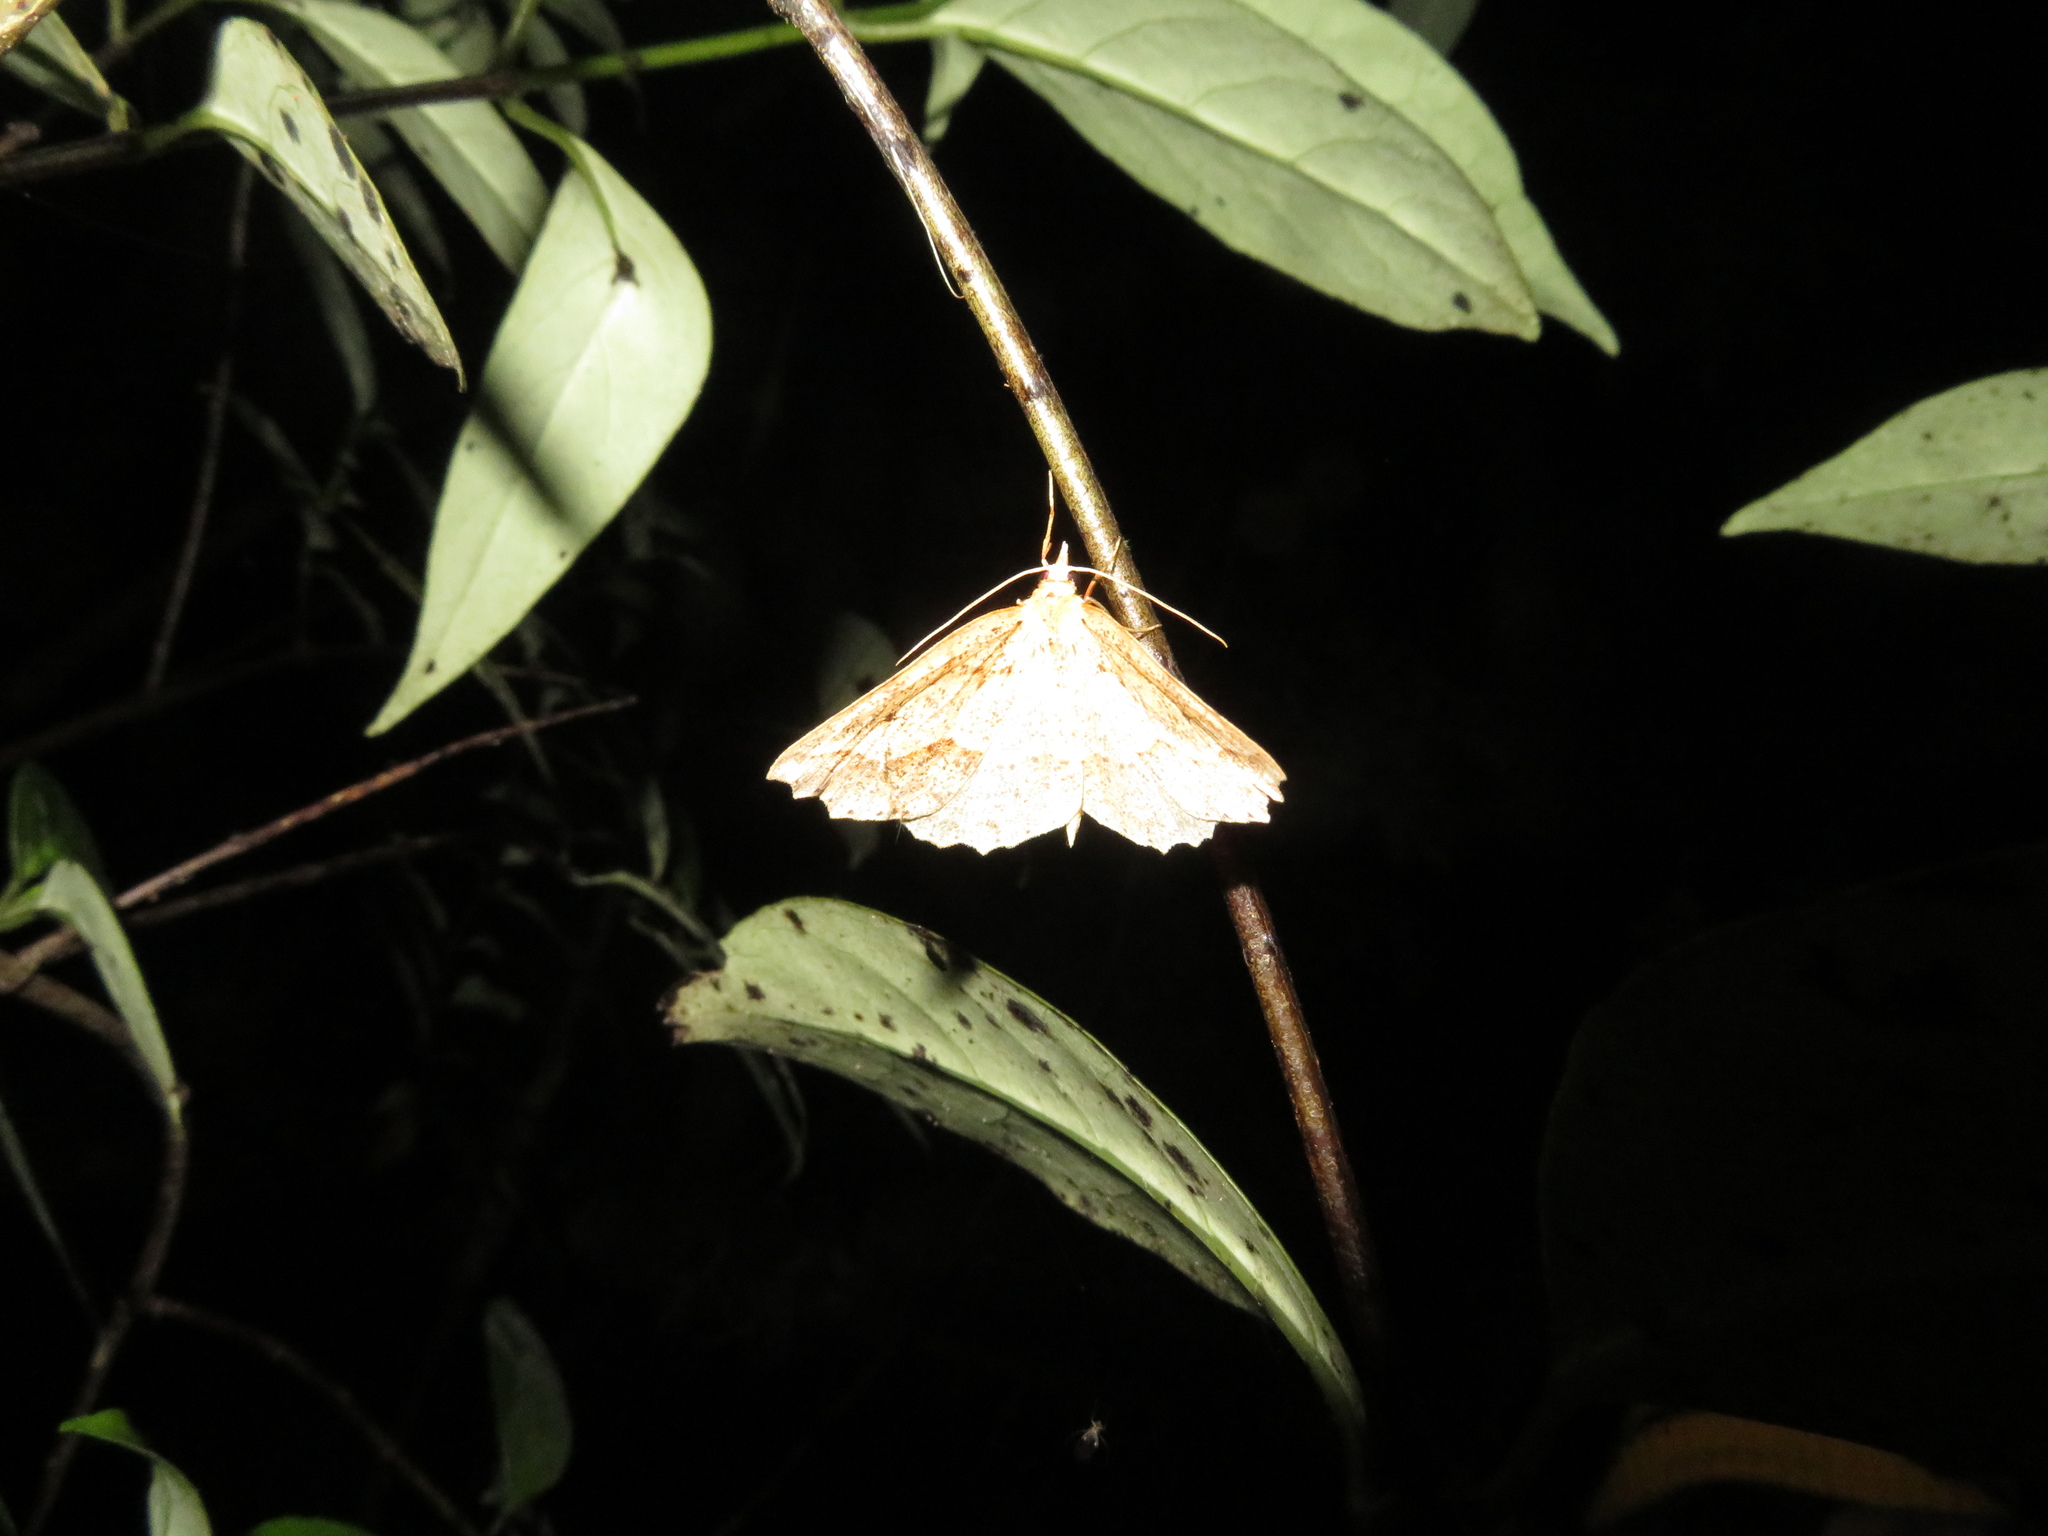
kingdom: Animalia
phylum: Arthropoda
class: Insecta
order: Lepidoptera
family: Geometridae
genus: Ischalis
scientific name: Ischalis variabilis
